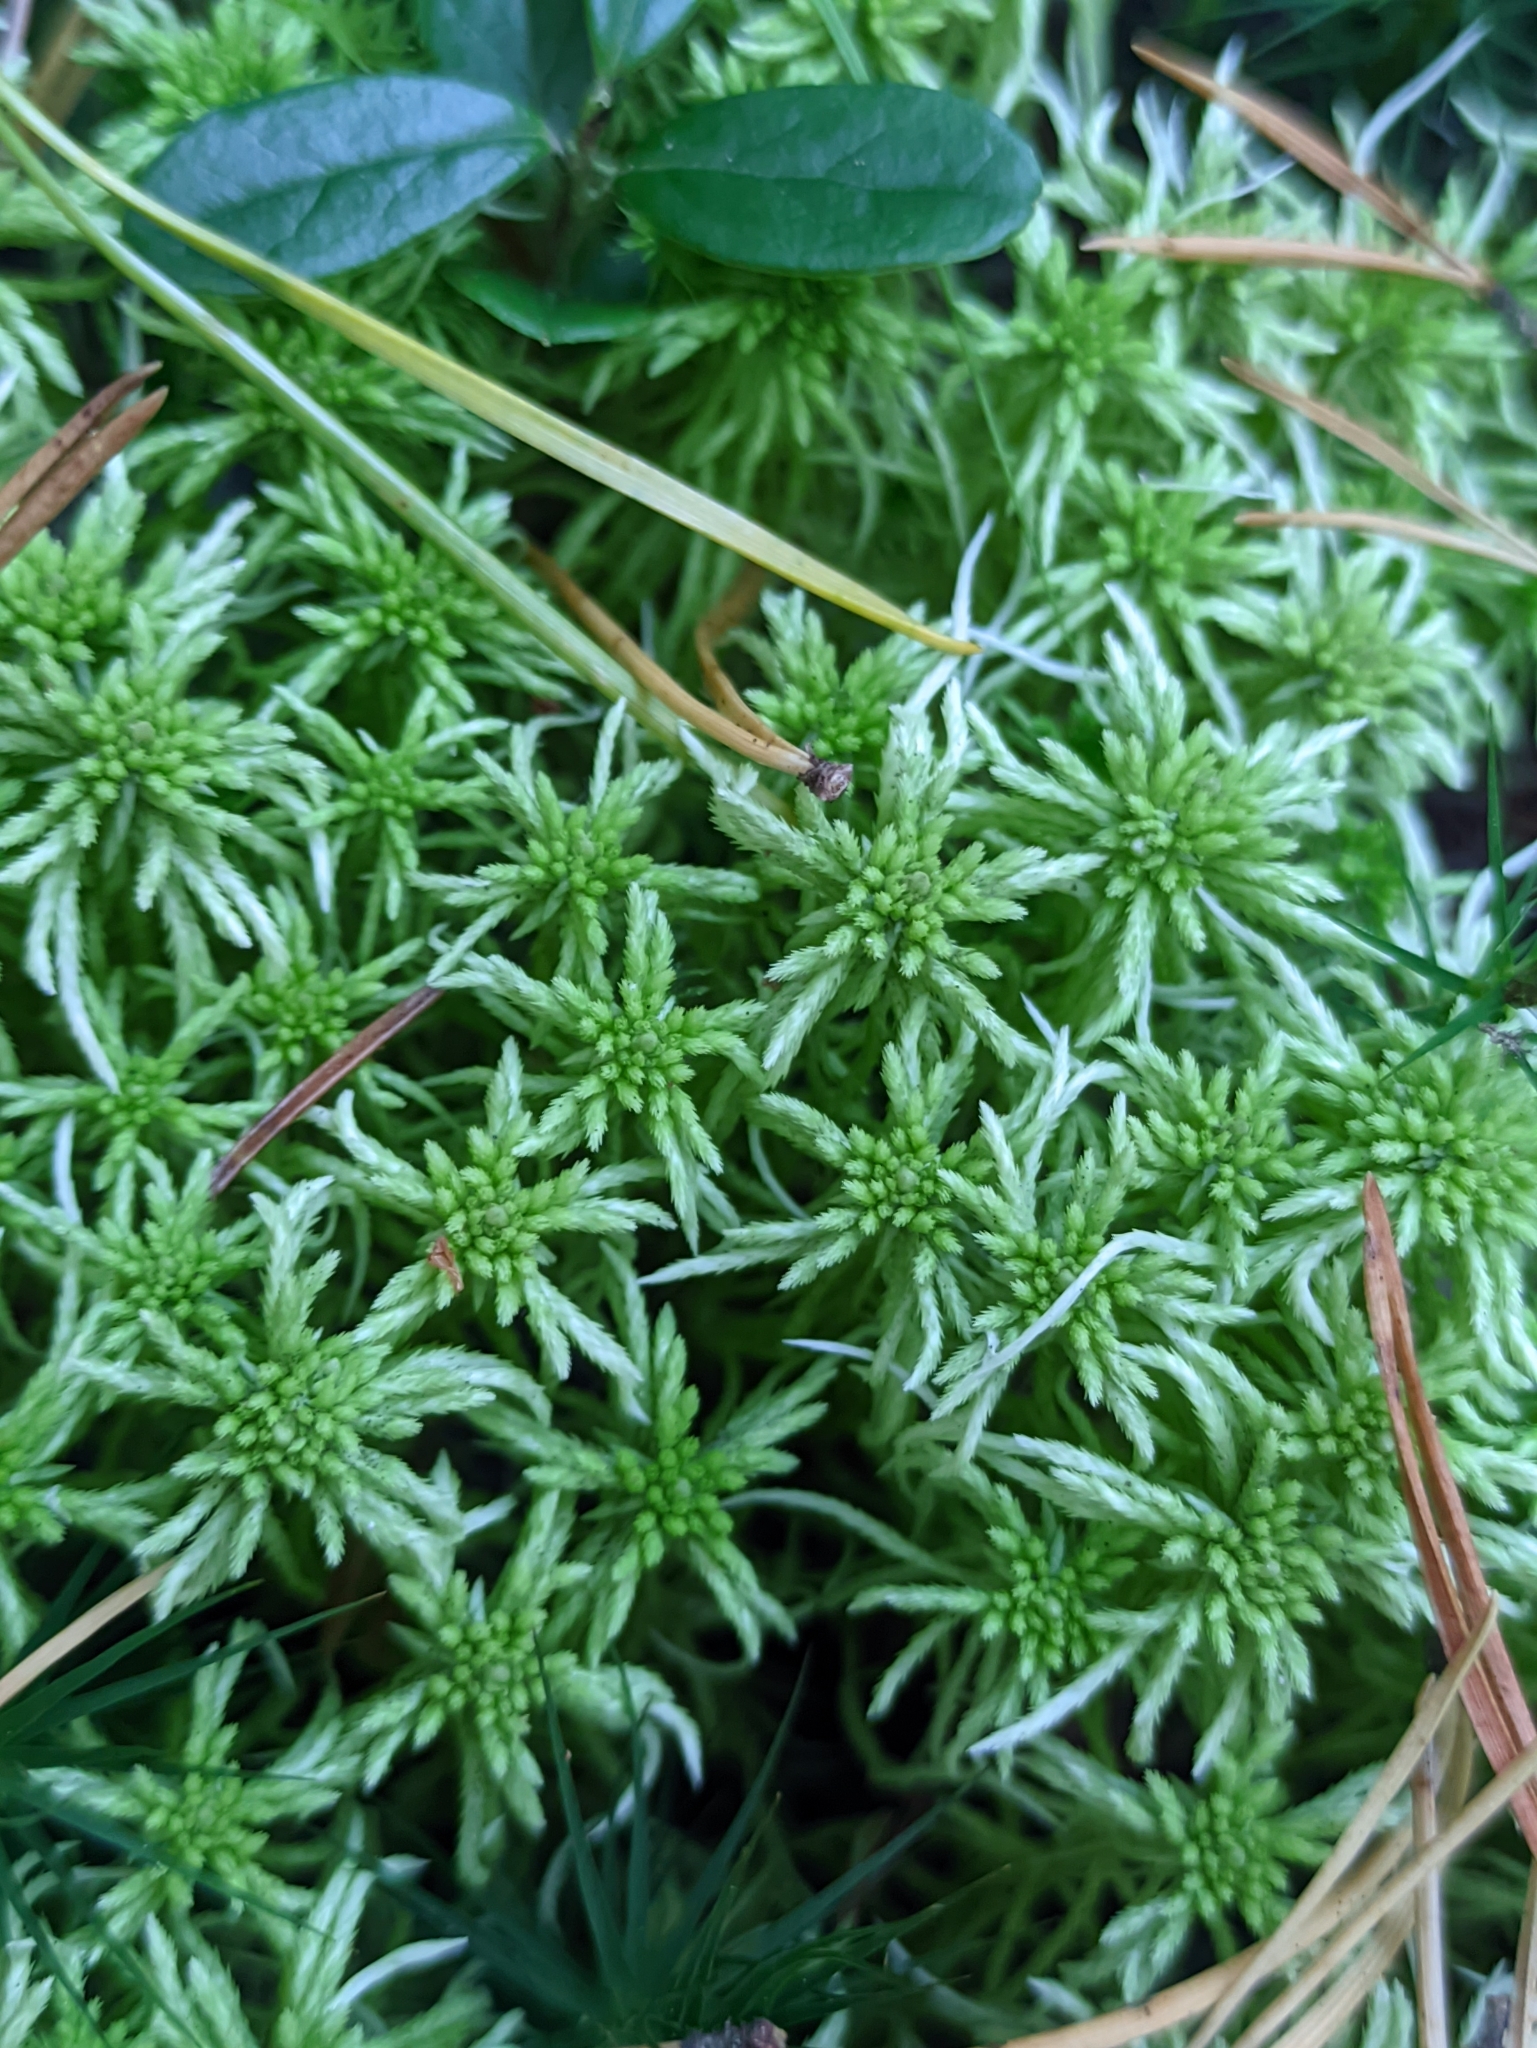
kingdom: Plantae
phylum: Bryophyta
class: Sphagnopsida
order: Sphagnales
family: Sphagnaceae
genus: Sphagnum
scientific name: Sphagnum girgensohnii
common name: Girgensohn's peat moss
